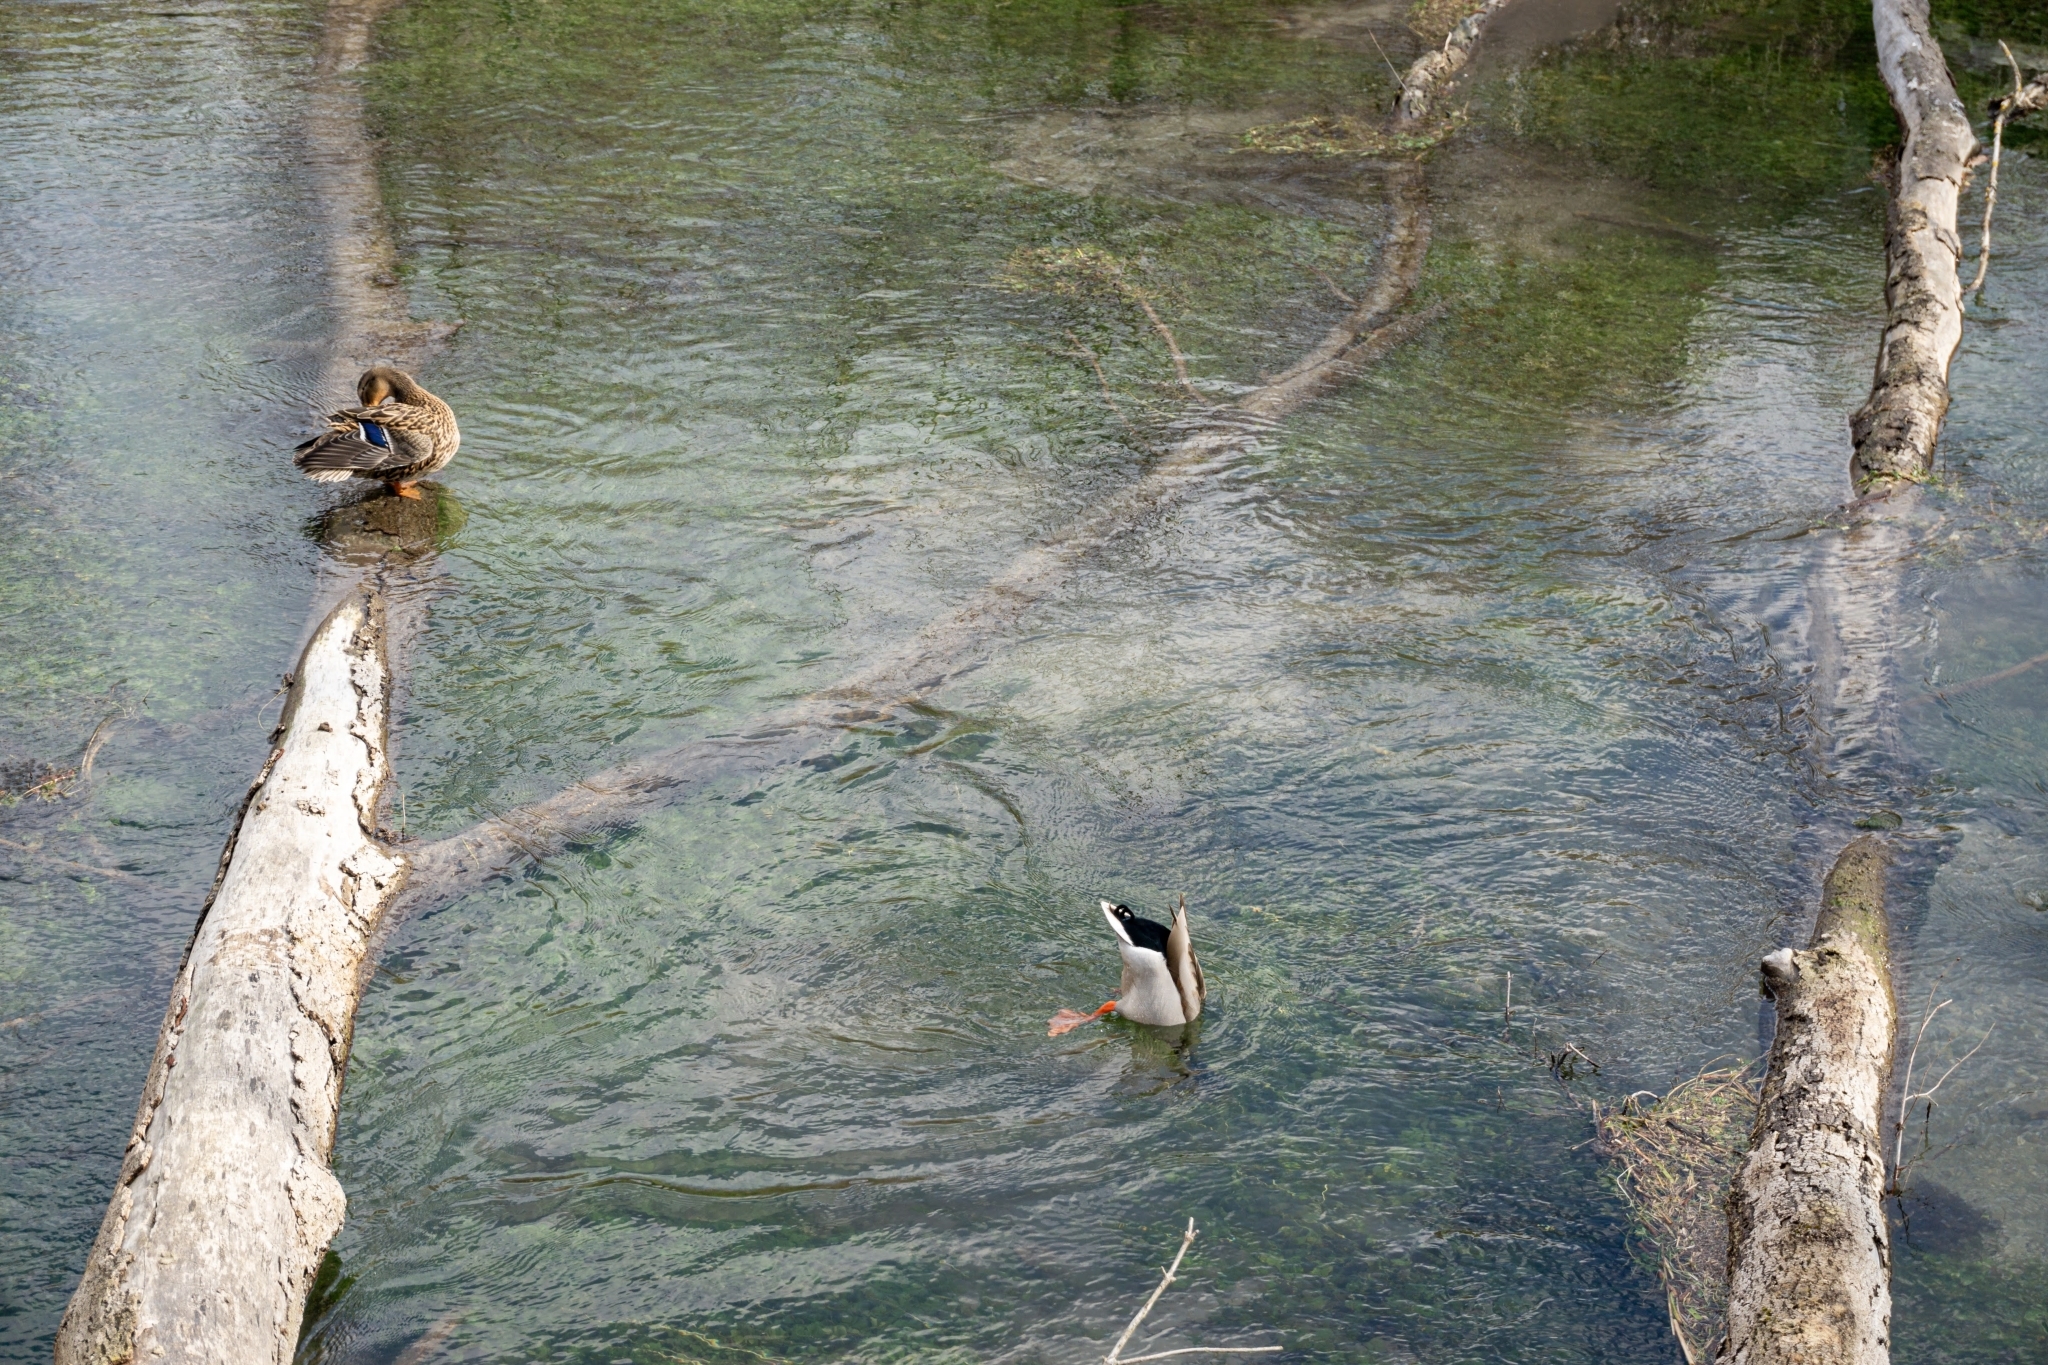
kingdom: Animalia
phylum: Chordata
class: Aves
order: Anseriformes
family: Anatidae
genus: Anas
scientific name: Anas platyrhynchos
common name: Mallard
